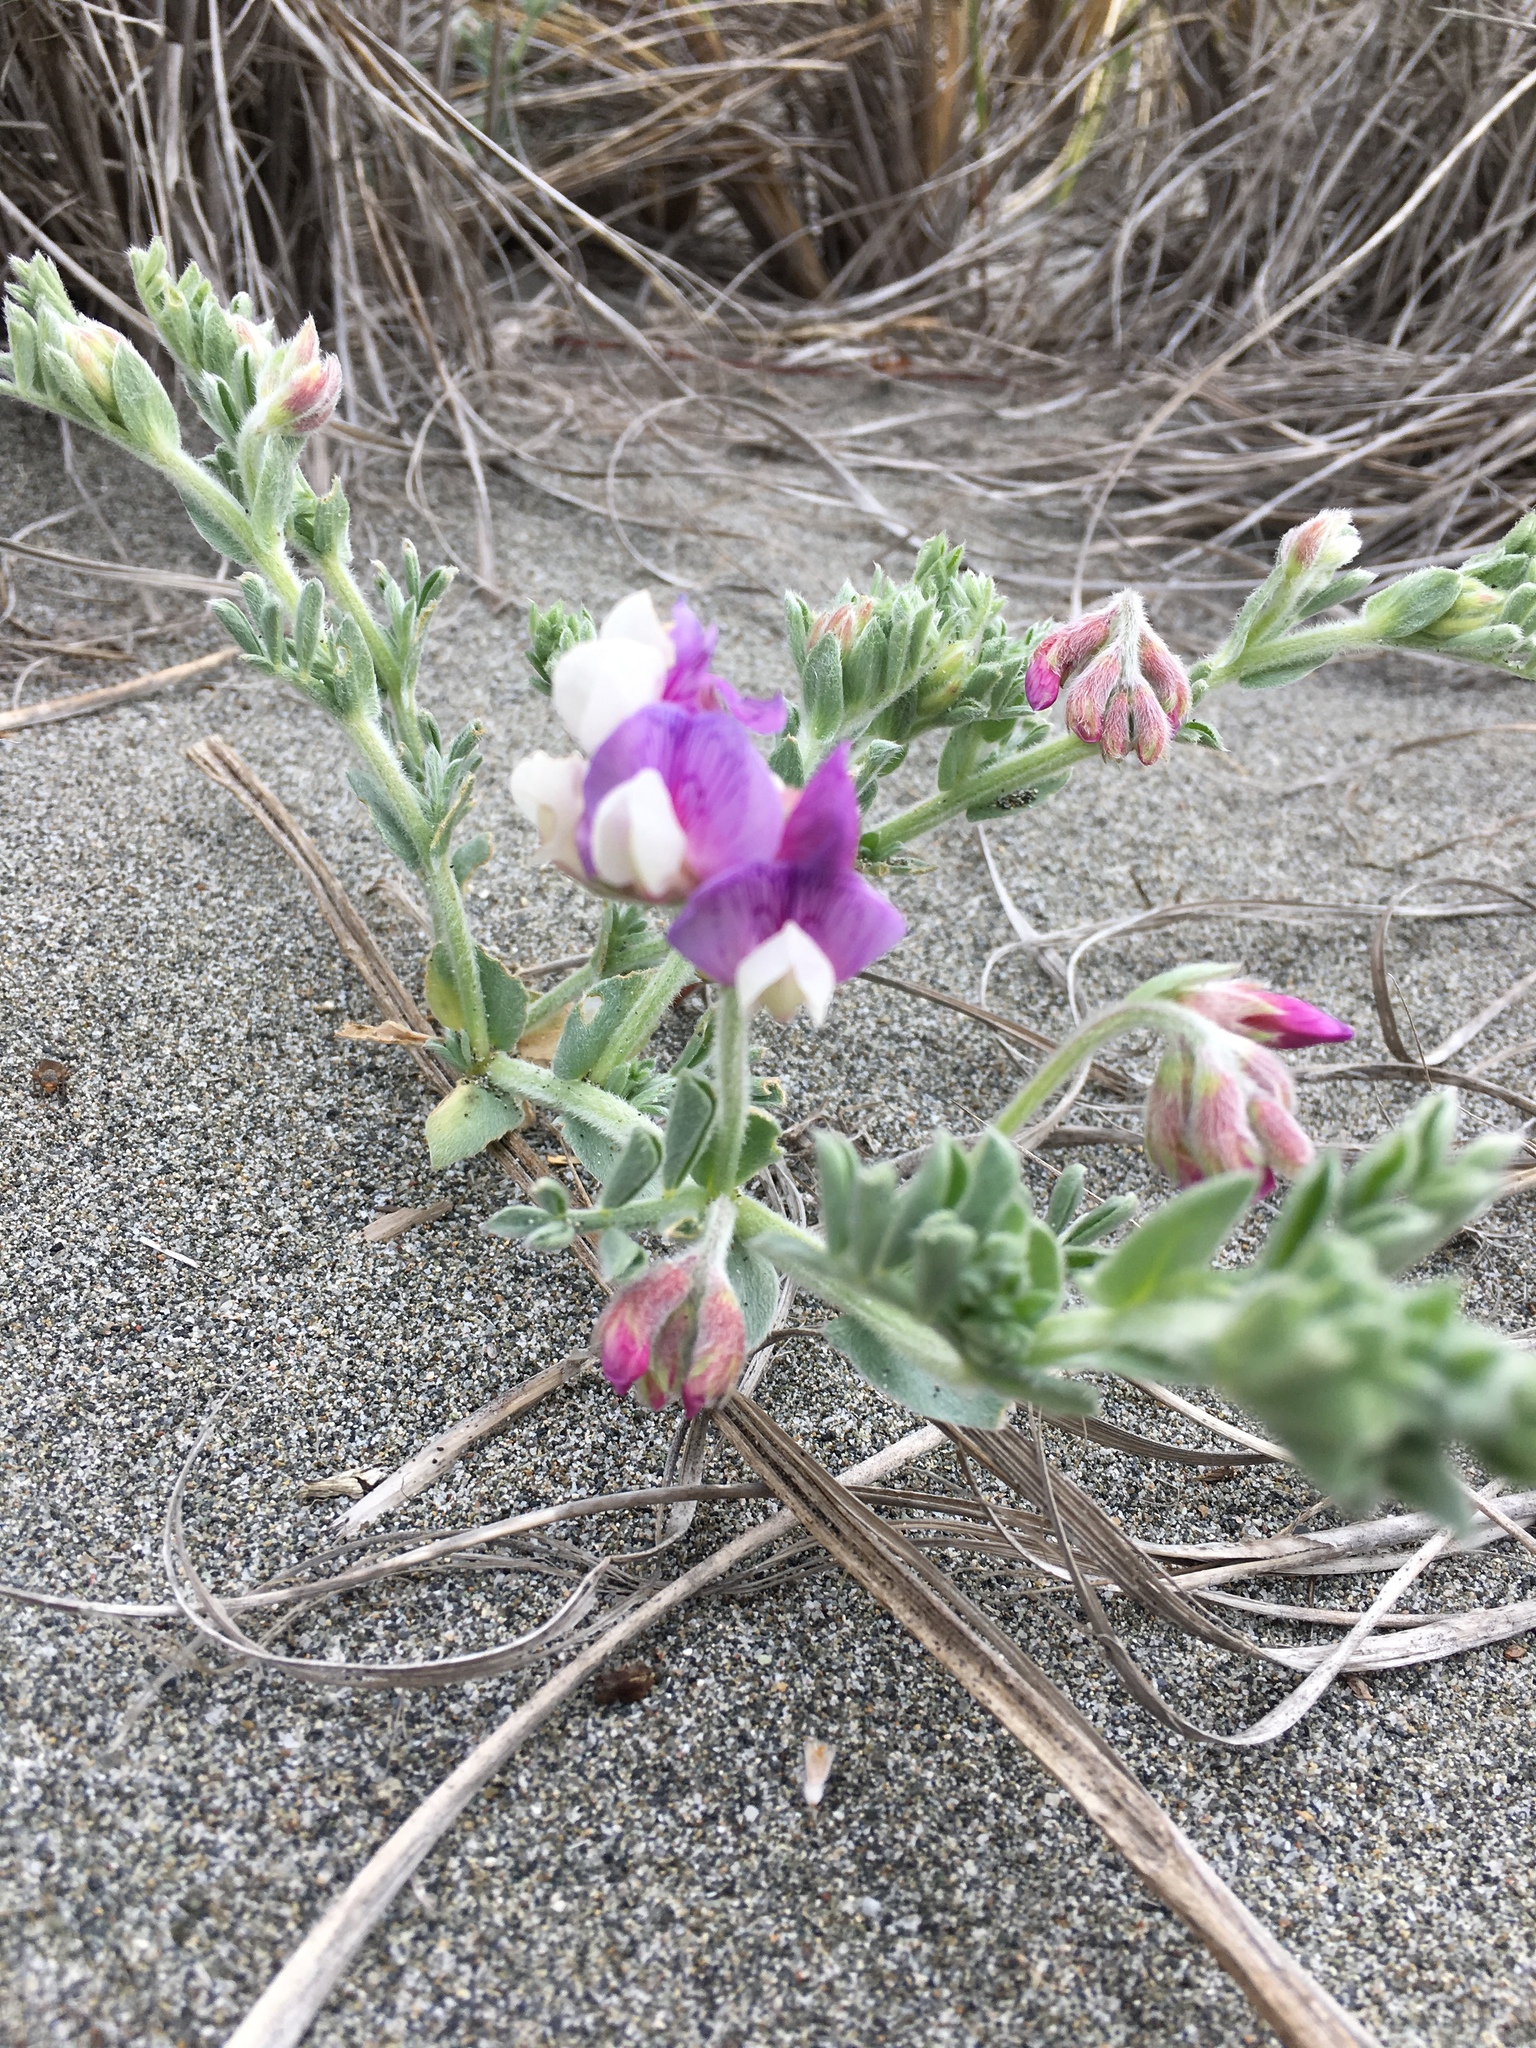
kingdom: Plantae
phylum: Tracheophyta
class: Magnoliopsida
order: Fabales
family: Fabaceae
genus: Lathyrus
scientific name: Lathyrus littoralis
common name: Dune sweet pea
